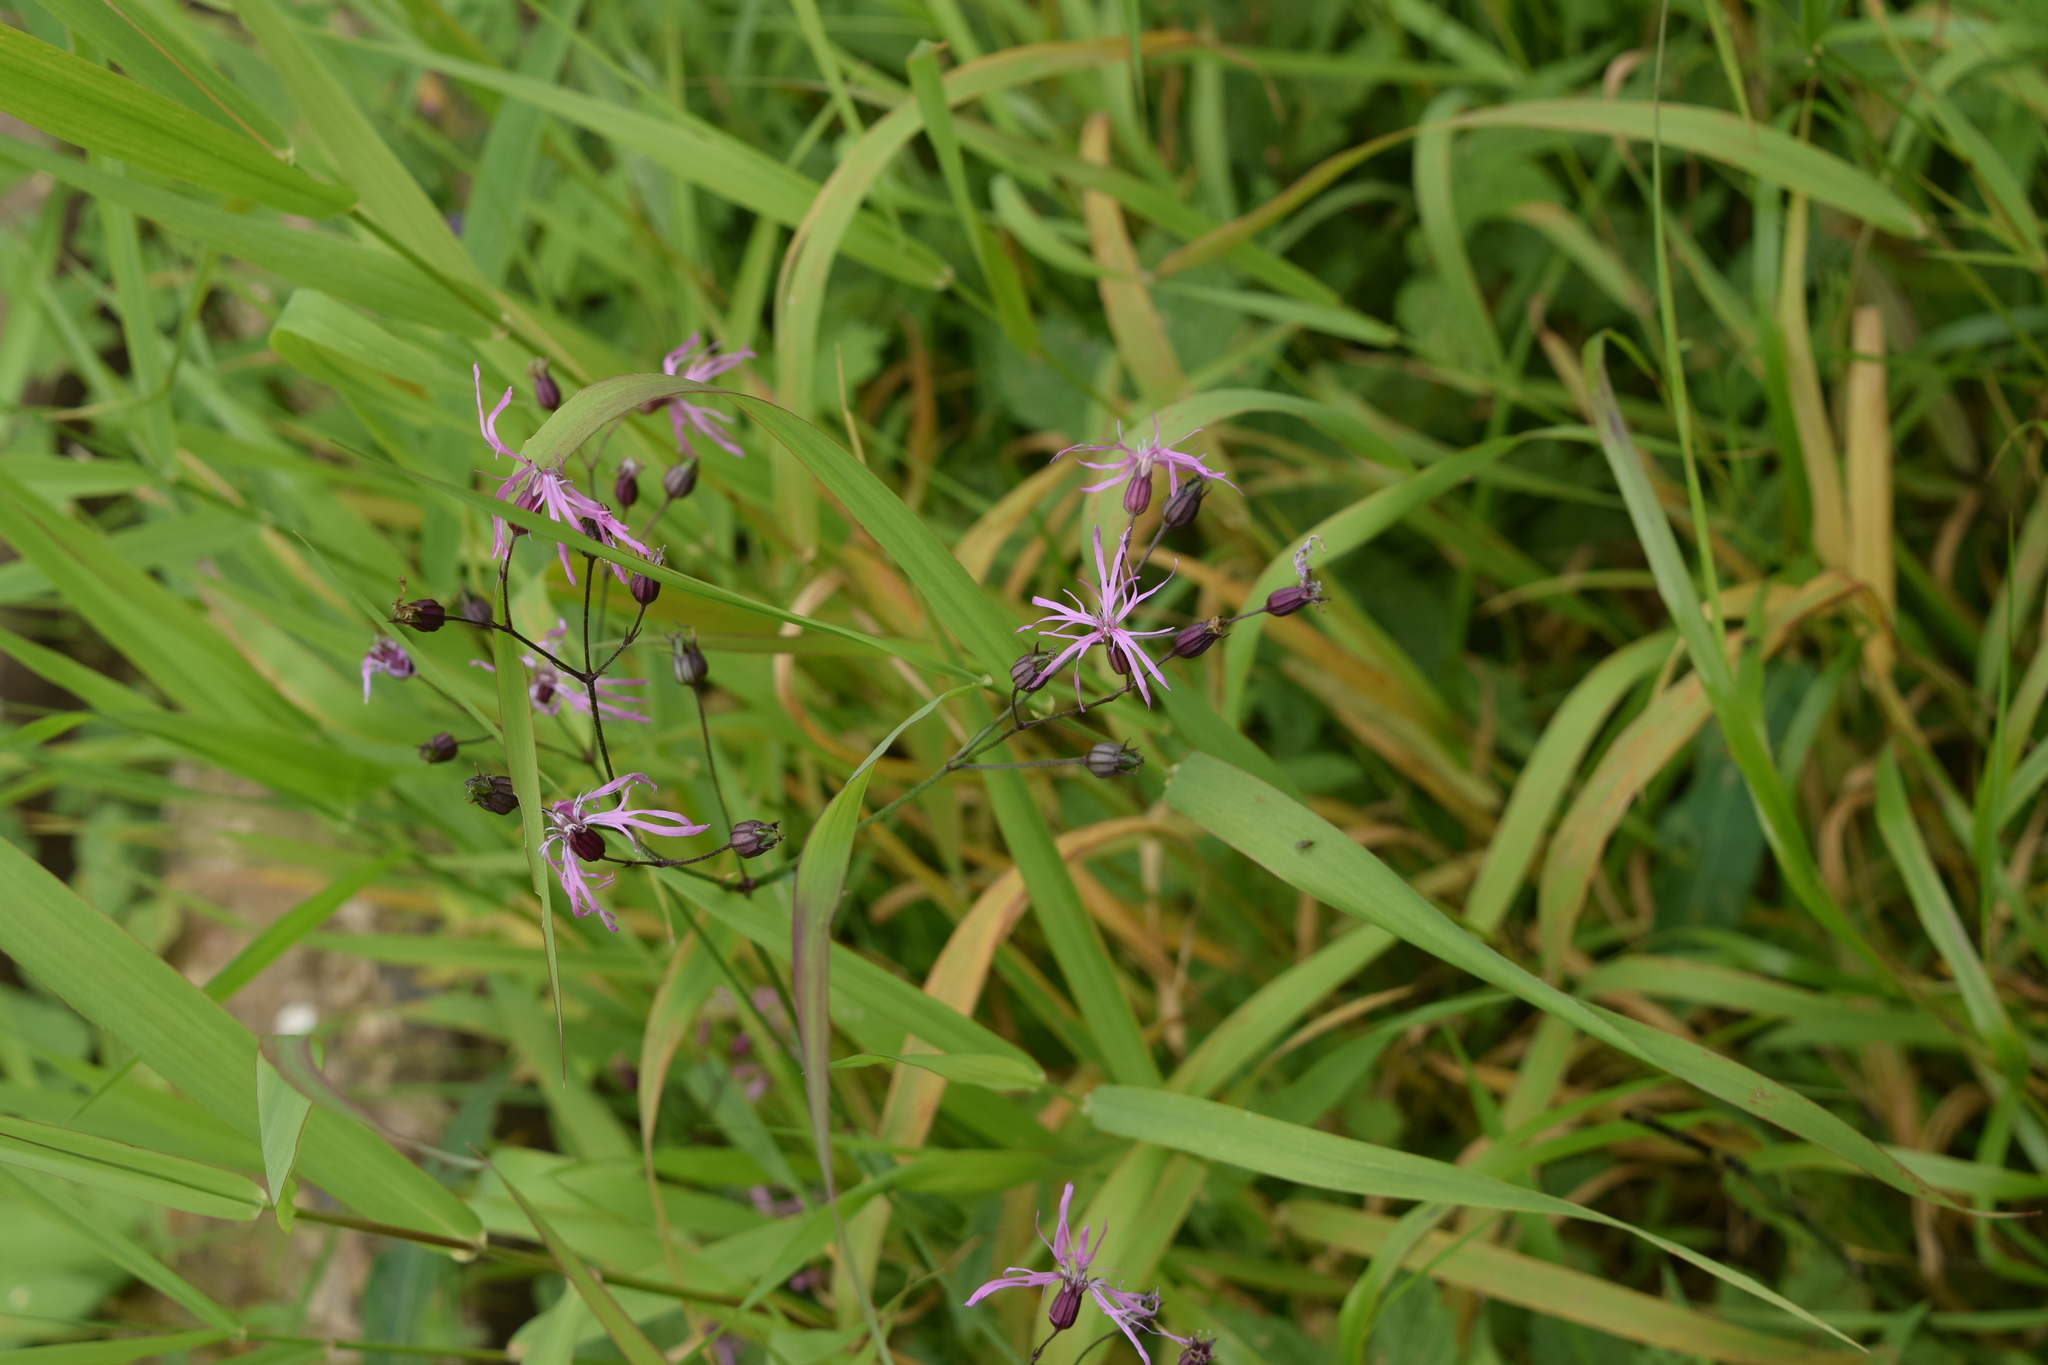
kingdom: Plantae
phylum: Tracheophyta
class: Magnoliopsida
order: Caryophyllales
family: Caryophyllaceae
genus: Silene
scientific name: Silene flos-cuculi
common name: Ragged-robin
